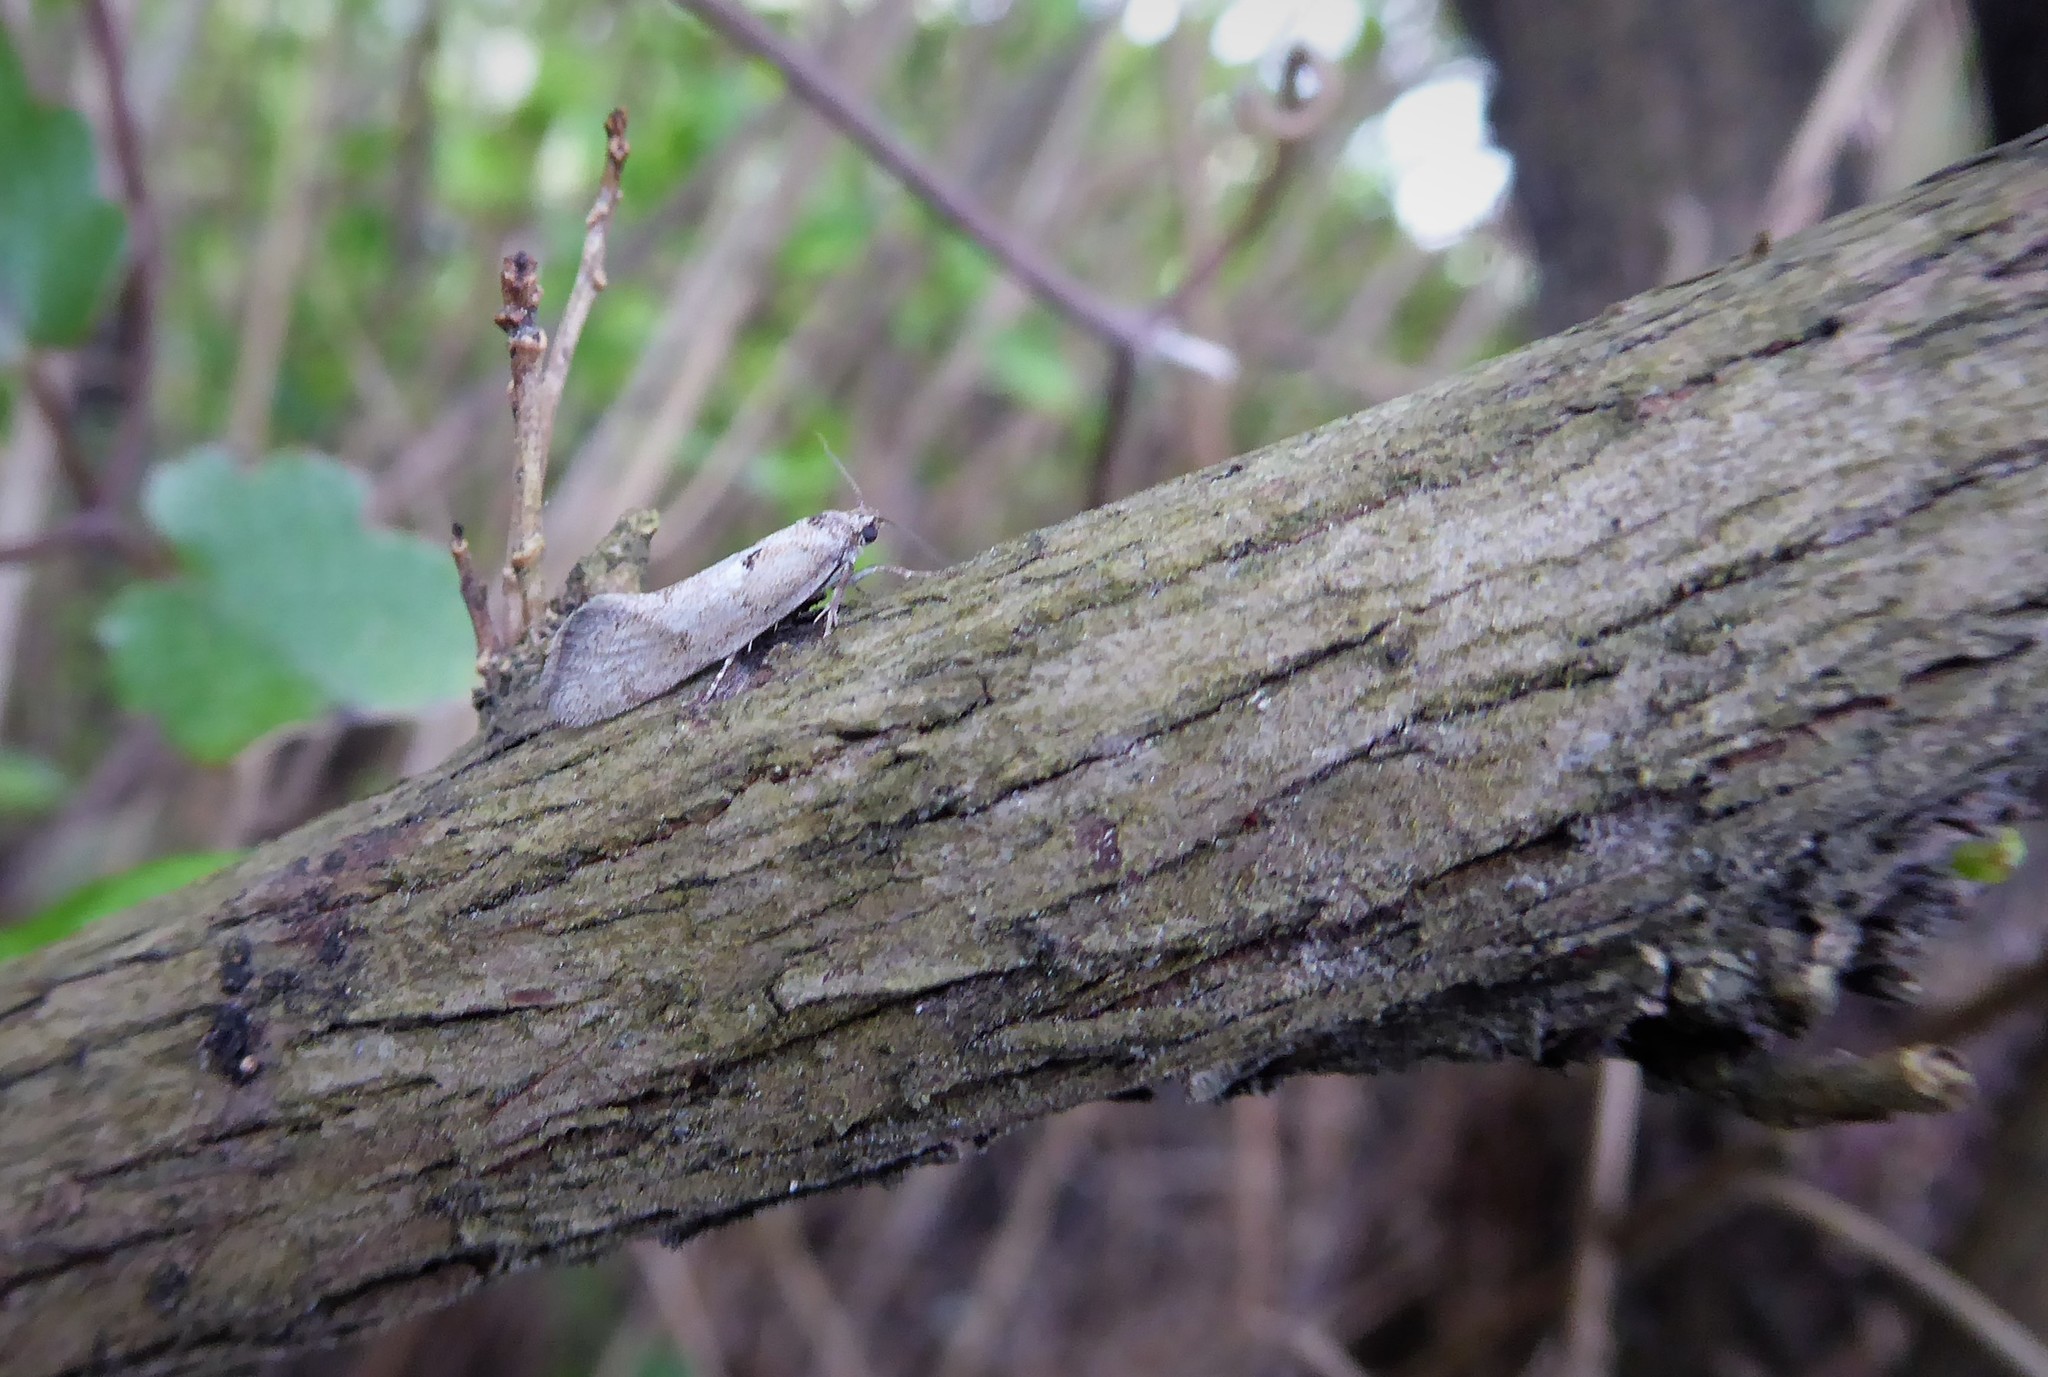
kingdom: Animalia
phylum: Arthropoda
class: Insecta
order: Lepidoptera
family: Oecophoridae
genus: Tingena
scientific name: Tingena brachyacma
